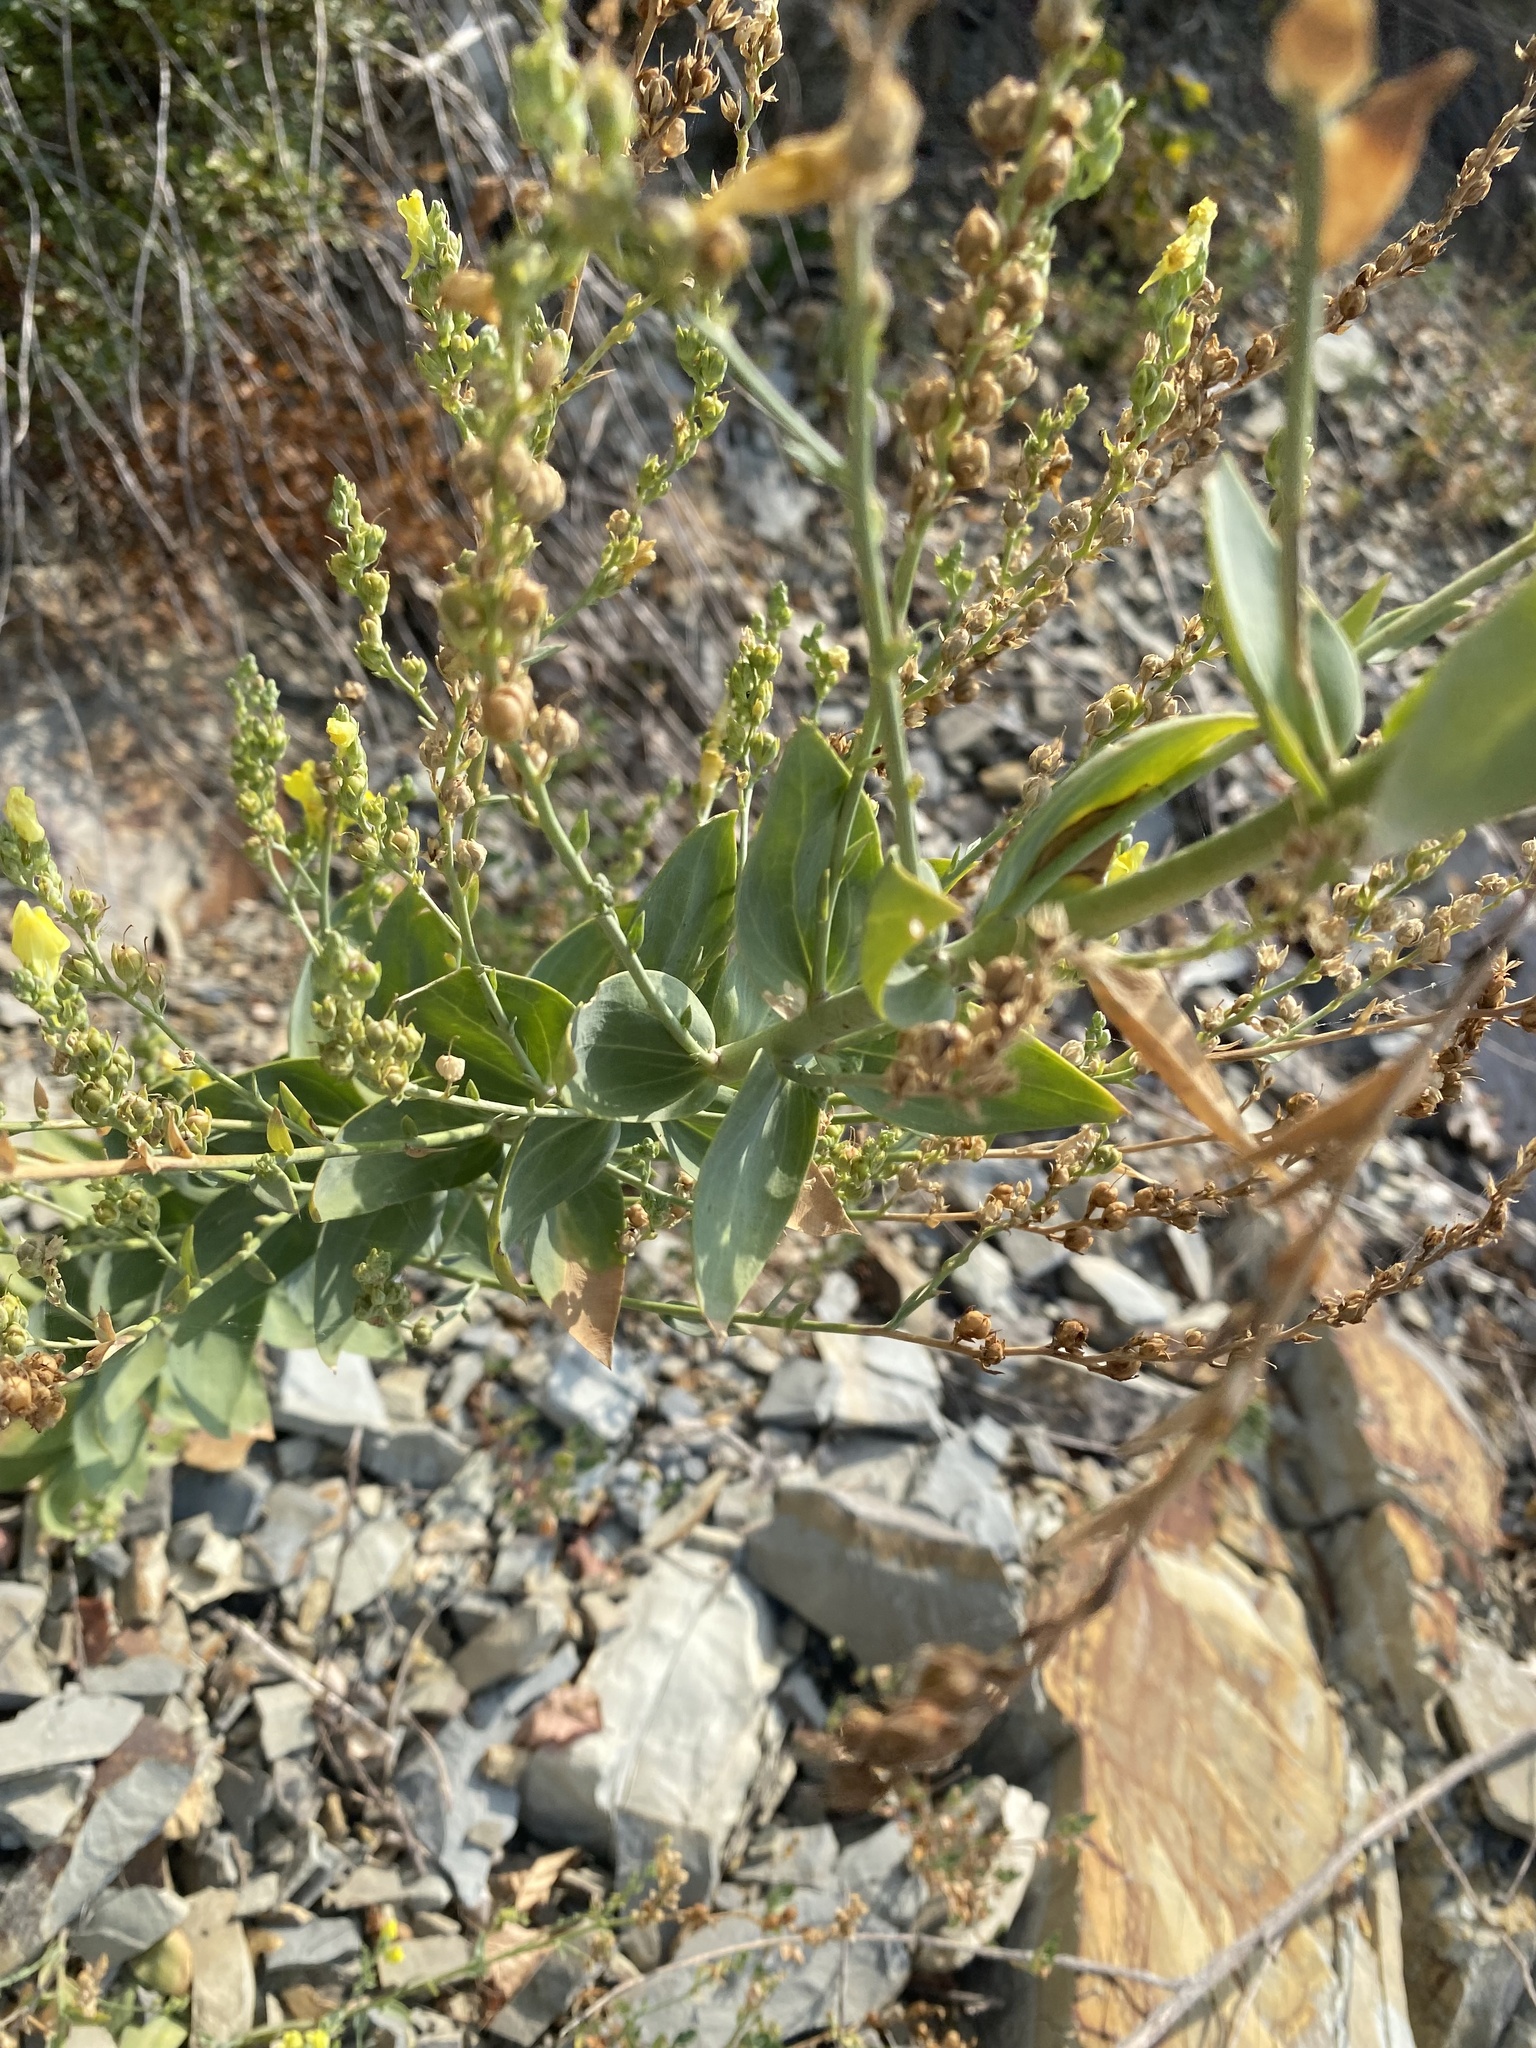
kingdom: Plantae
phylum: Tracheophyta
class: Magnoliopsida
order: Lamiales
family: Plantaginaceae
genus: Linaria
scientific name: Linaria genistifolia
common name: Broomleaf toadflax
